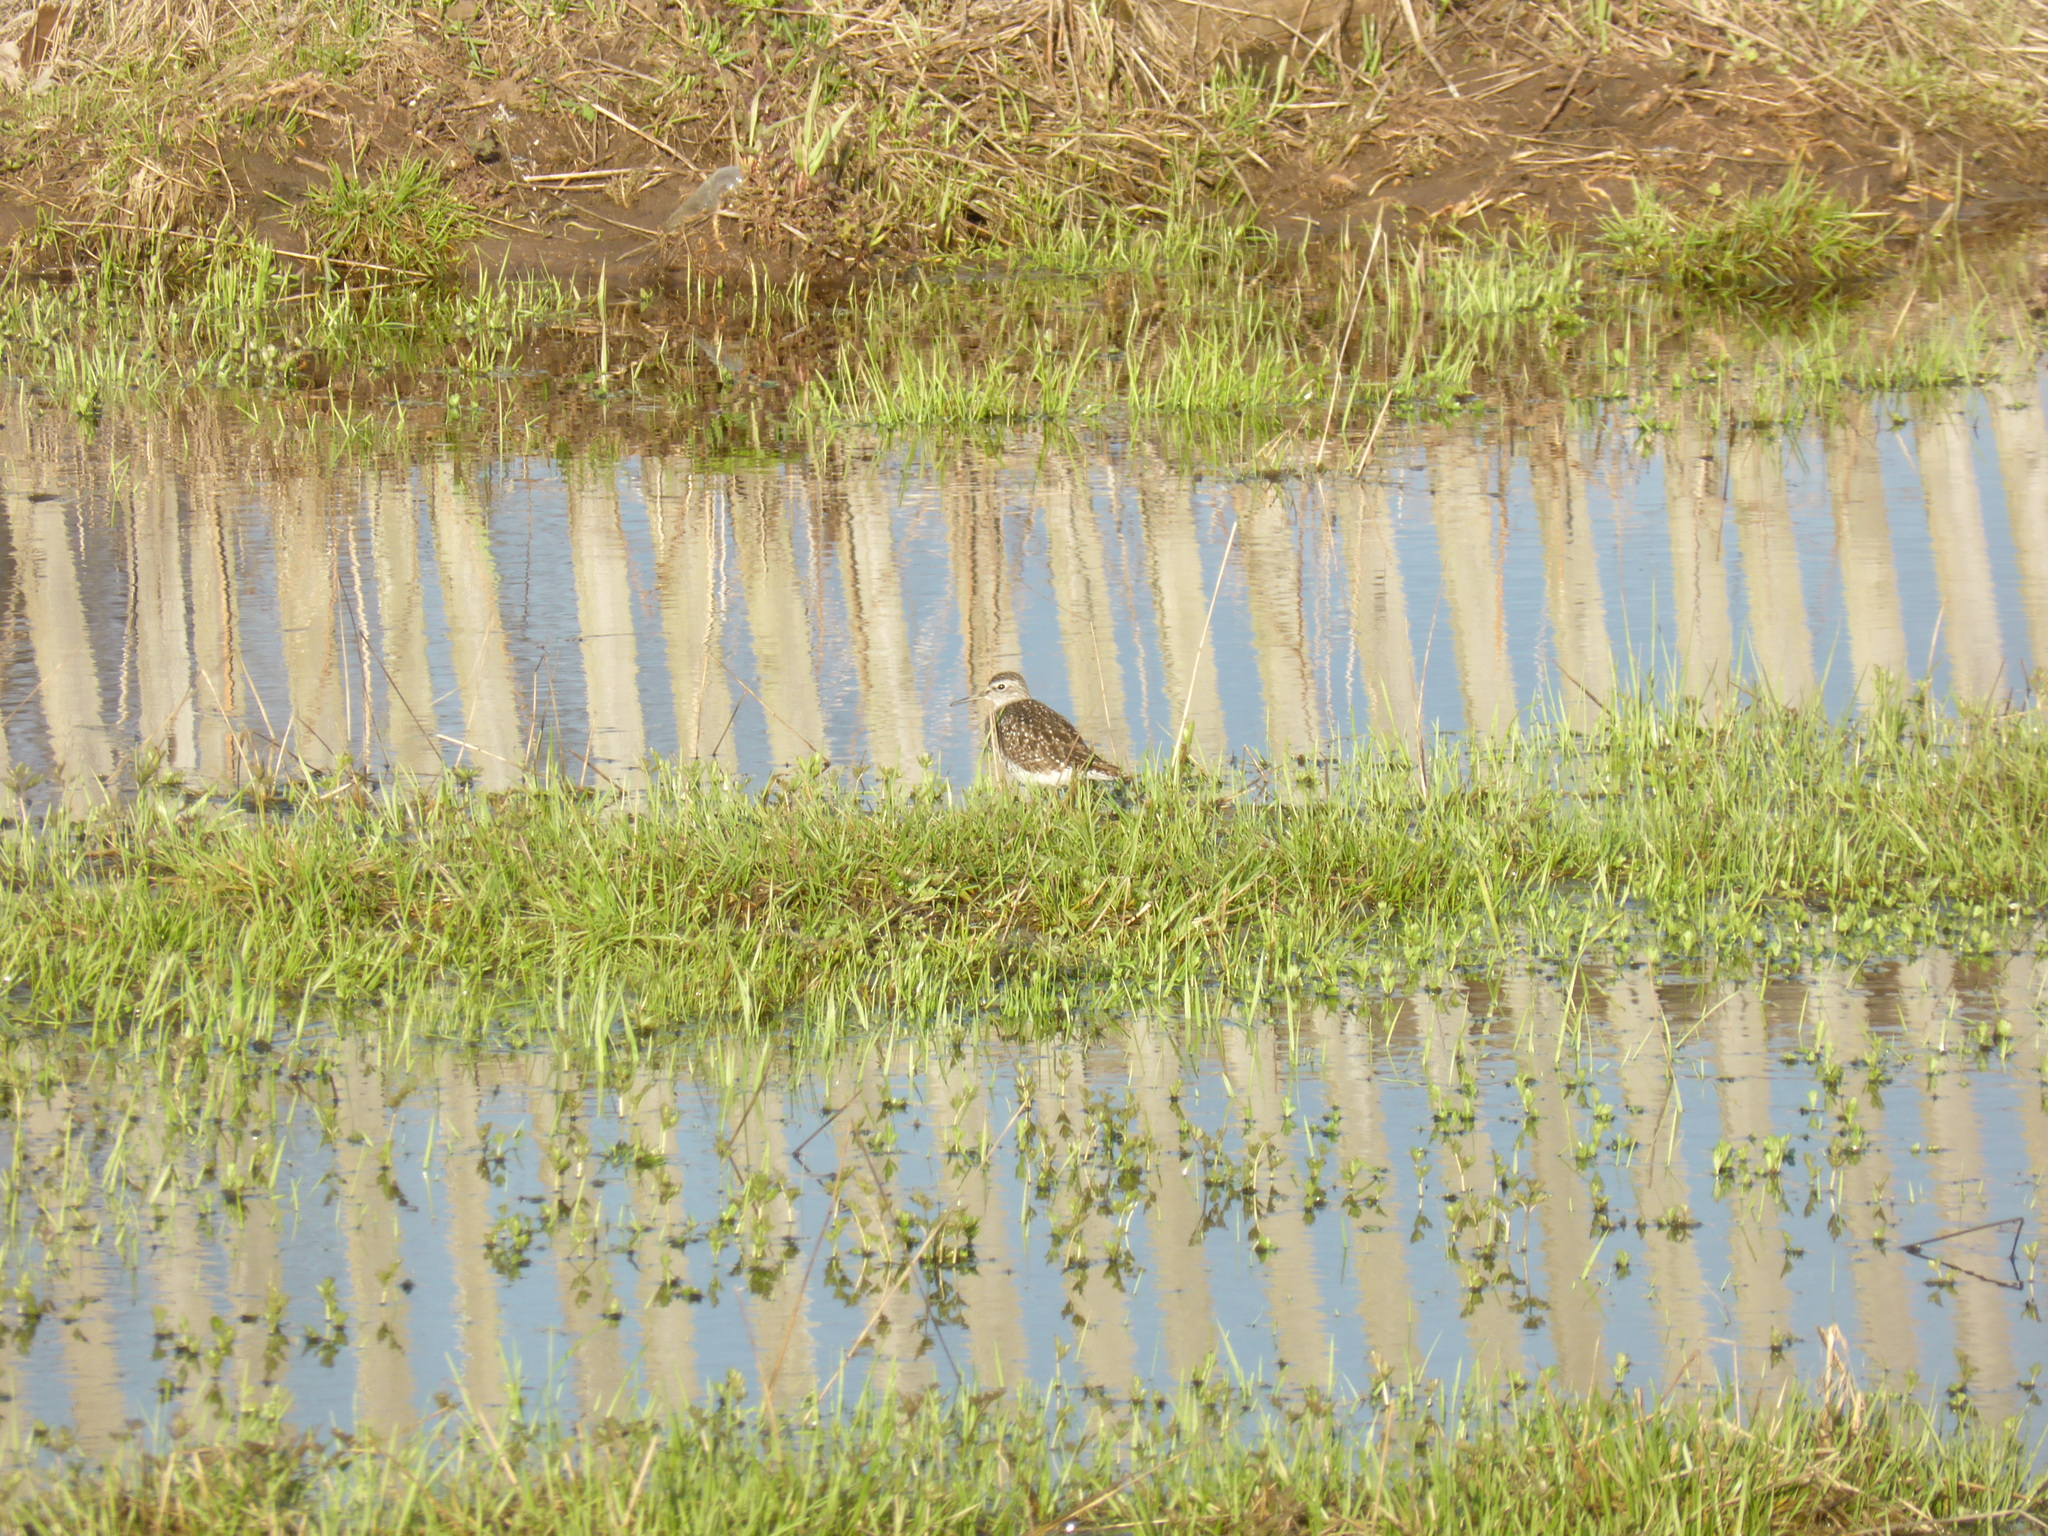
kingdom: Animalia
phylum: Chordata
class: Aves
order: Charadriiformes
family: Scolopacidae
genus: Tringa
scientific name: Tringa glareola
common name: Wood sandpiper
